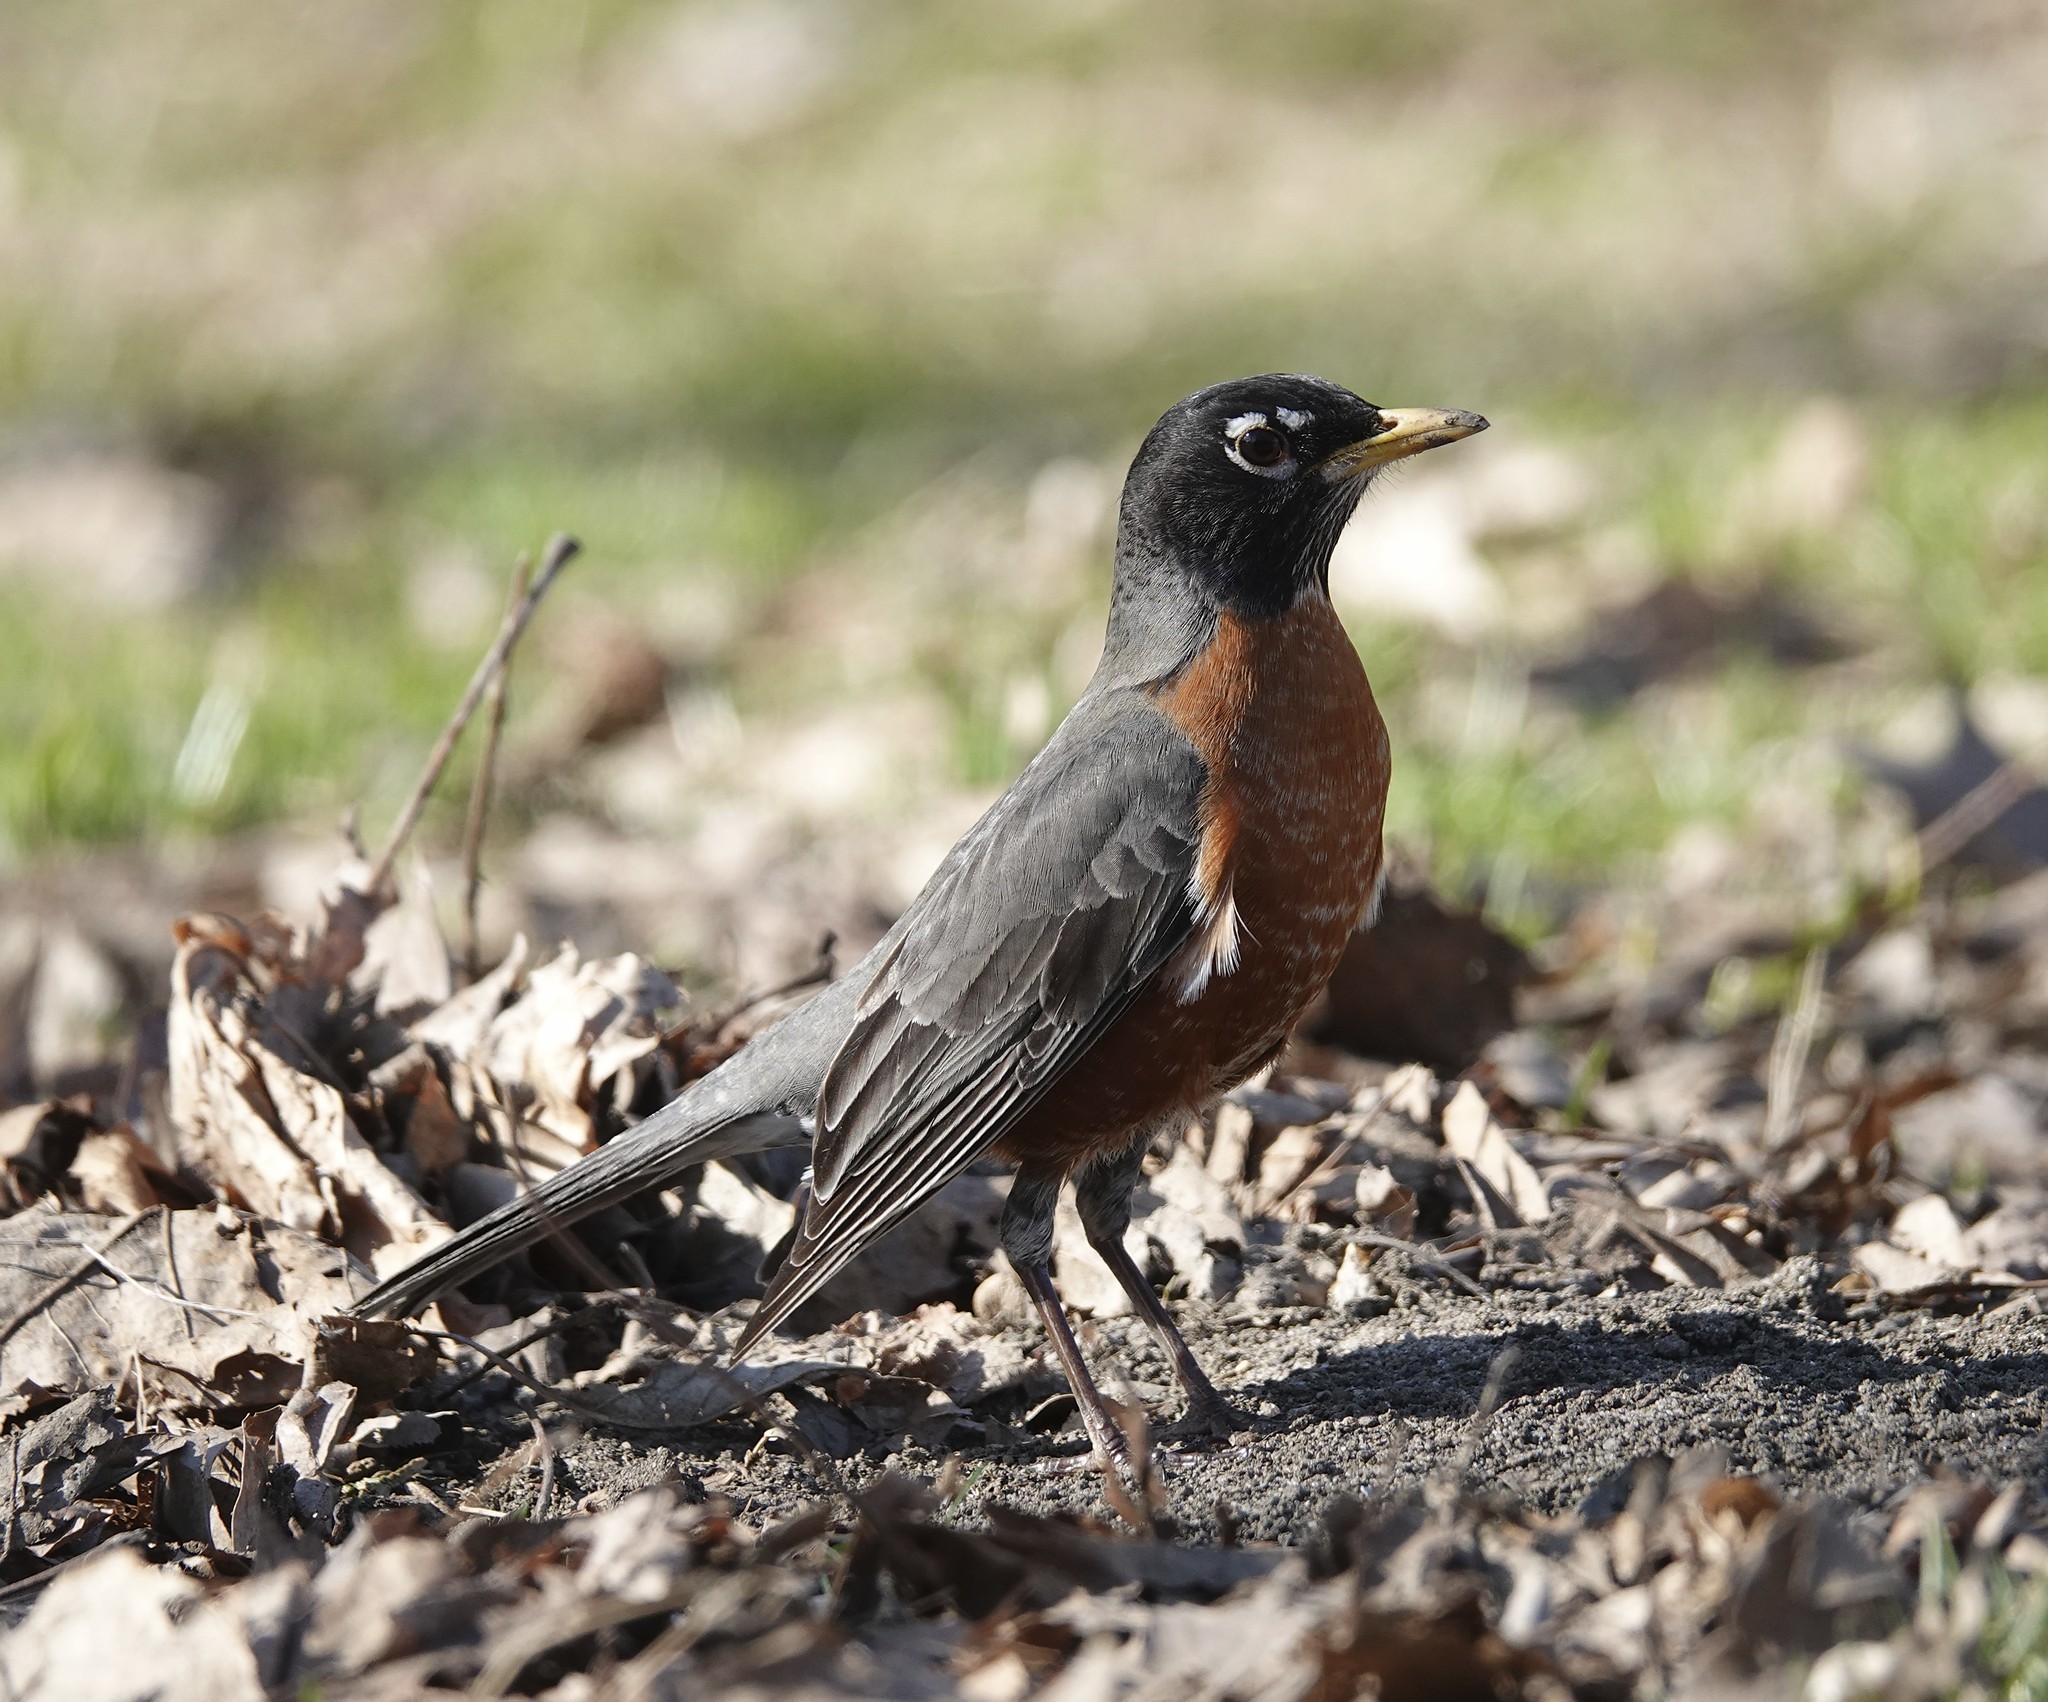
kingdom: Animalia
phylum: Chordata
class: Aves
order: Passeriformes
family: Turdidae
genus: Turdus
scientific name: Turdus migratorius
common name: American robin
